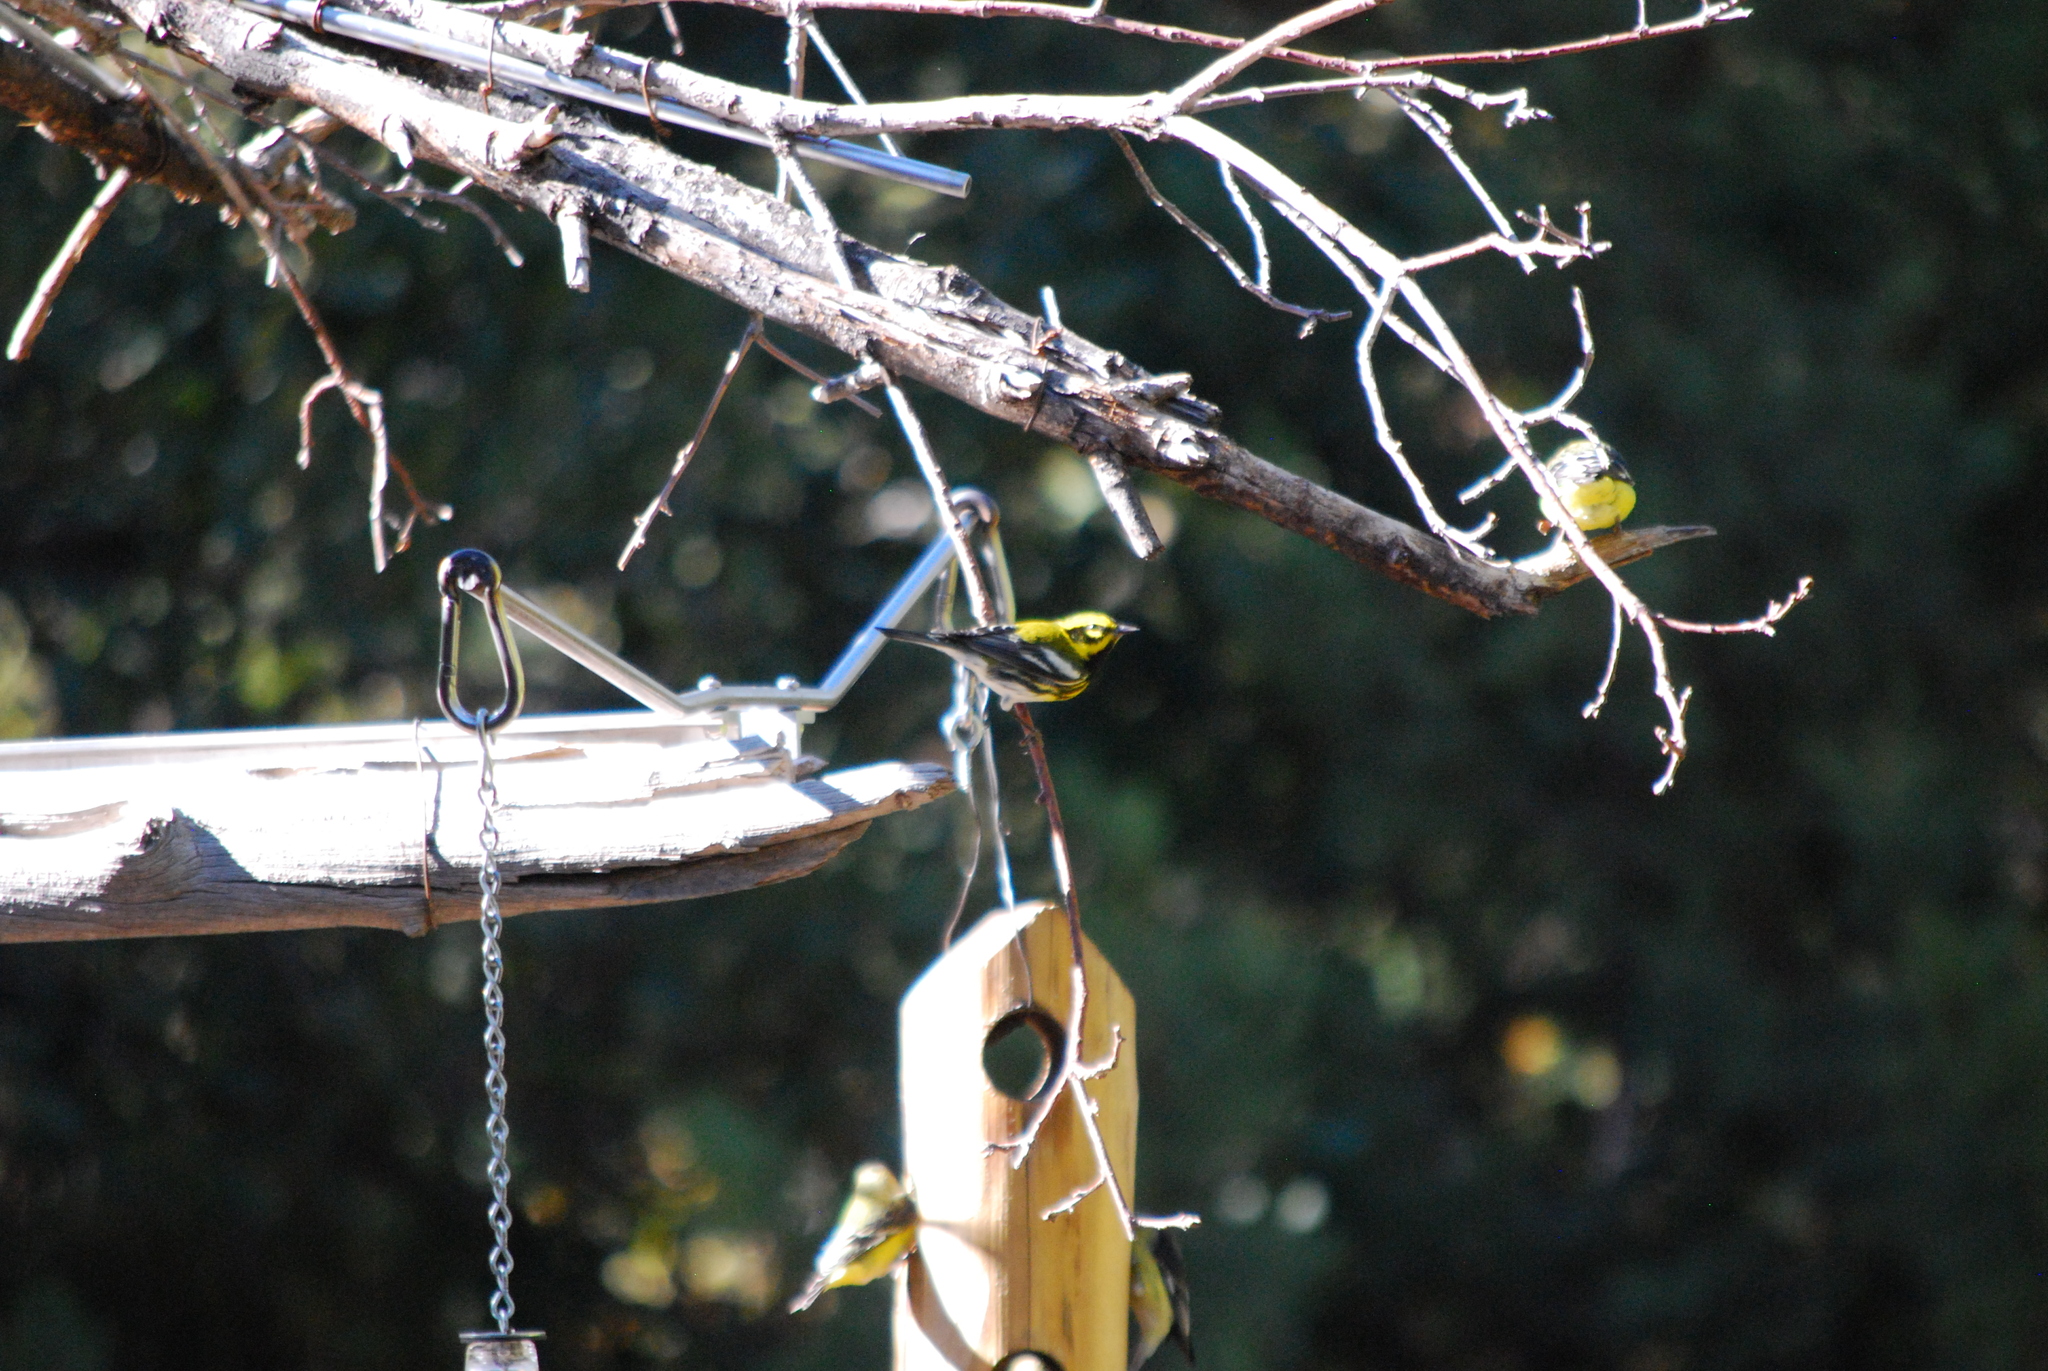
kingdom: Animalia
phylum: Chordata
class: Aves
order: Passeriformes
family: Parulidae
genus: Setophaga
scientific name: Setophaga townsendi
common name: Townsend's warbler
